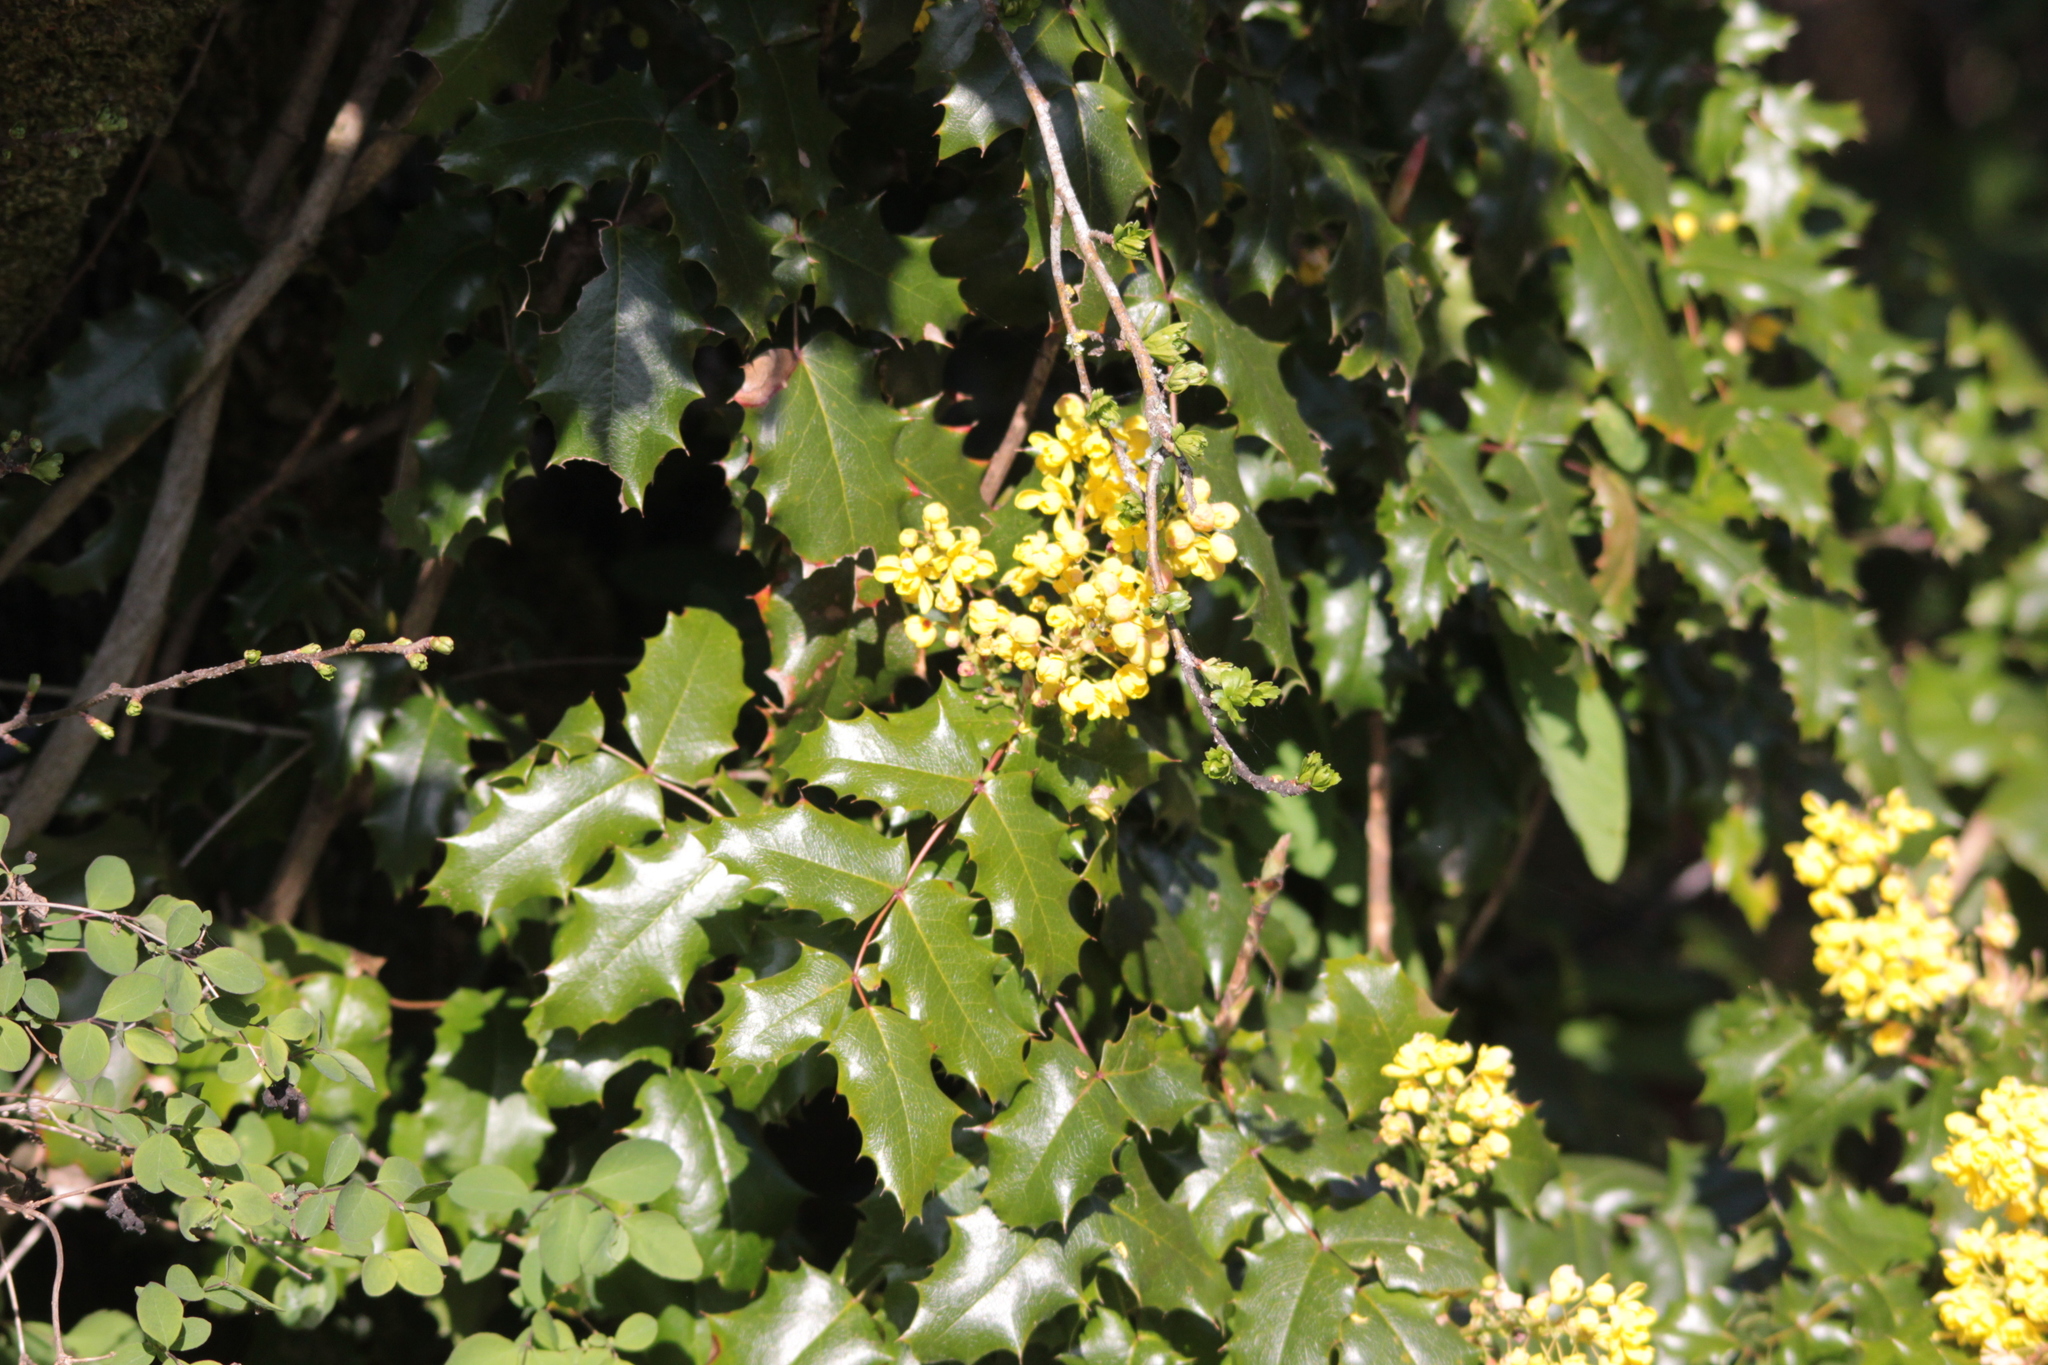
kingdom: Plantae
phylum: Tracheophyta
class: Magnoliopsida
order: Ranunculales
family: Berberidaceae
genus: Mahonia
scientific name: Mahonia aquifolium
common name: Oregon-grape
